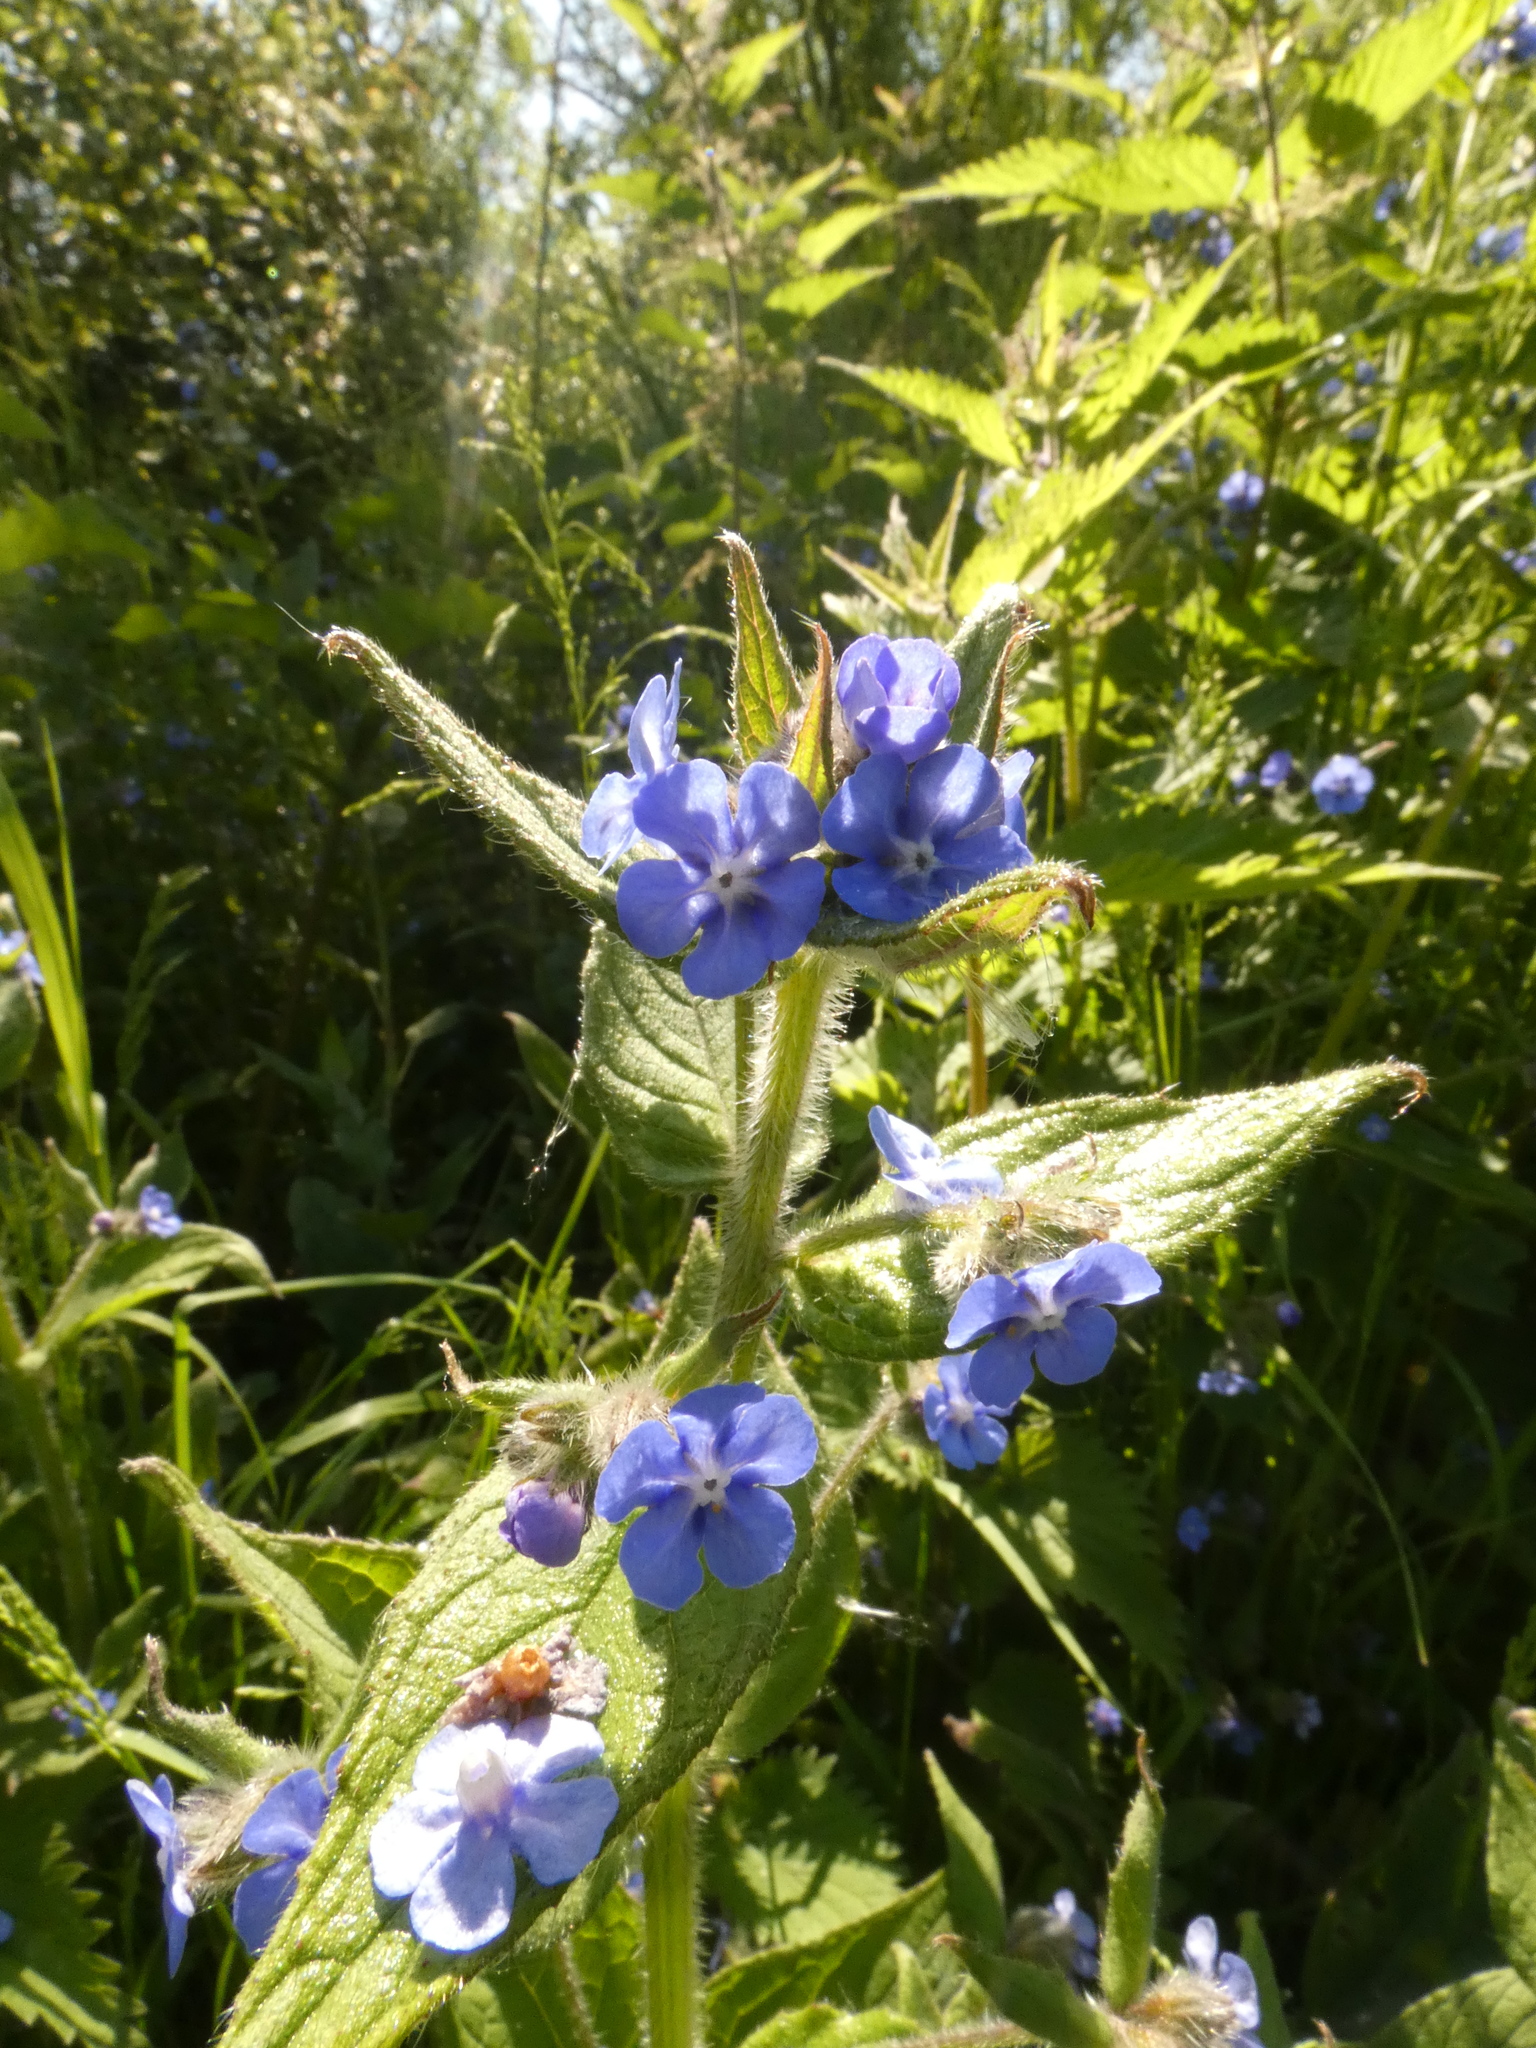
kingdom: Plantae
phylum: Tracheophyta
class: Magnoliopsida
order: Boraginales
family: Boraginaceae
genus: Pentaglottis
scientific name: Pentaglottis sempervirens
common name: Green alkanet
